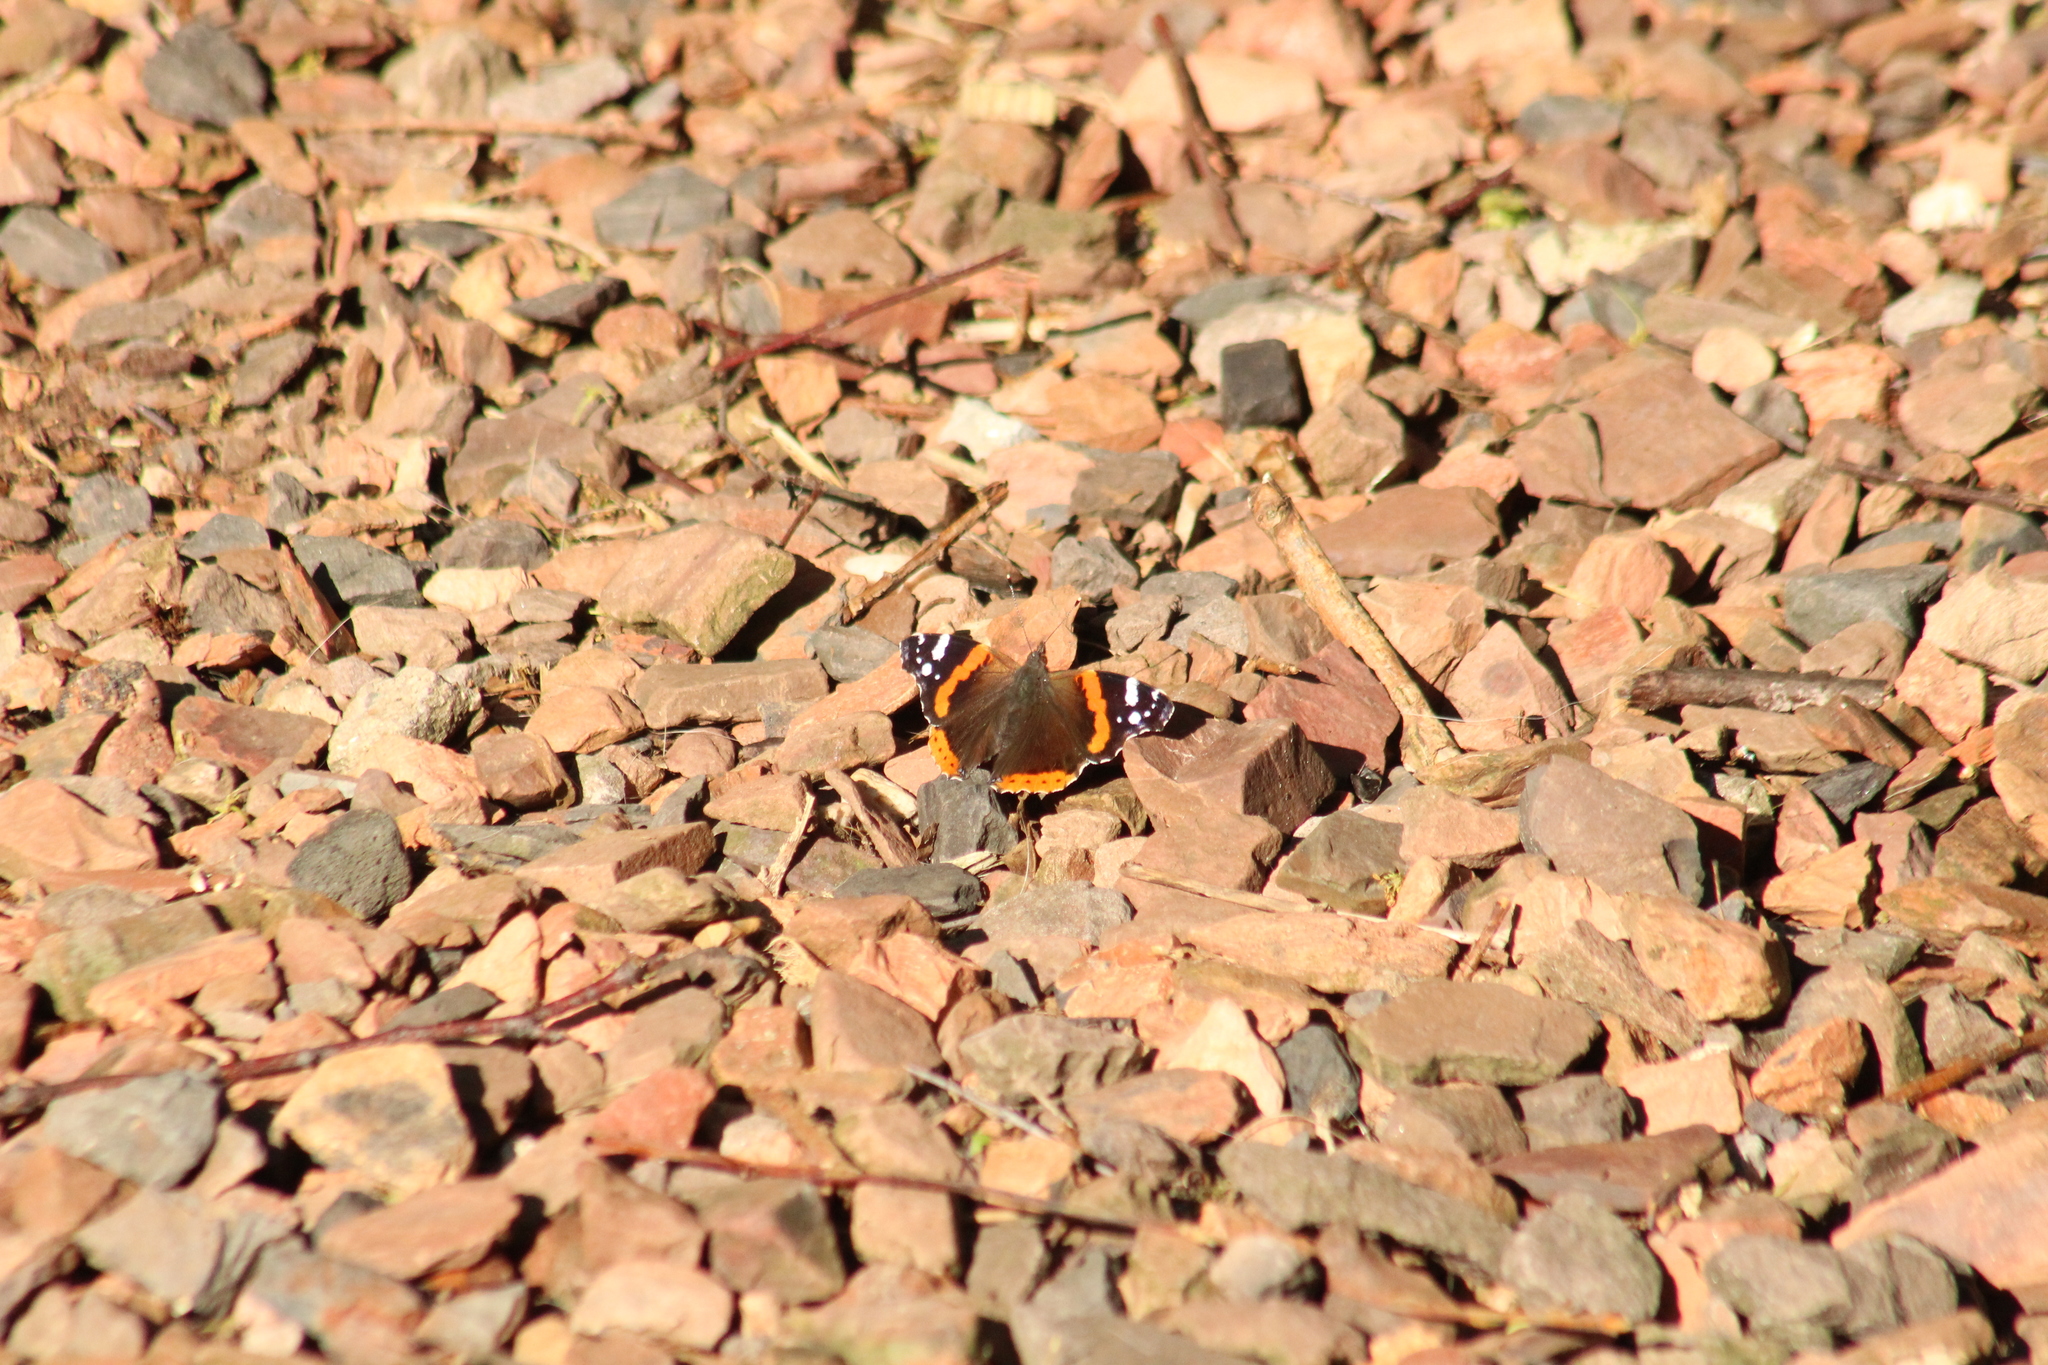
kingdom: Animalia
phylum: Arthropoda
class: Insecta
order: Lepidoptera
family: Nymphalidae
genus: Vanessa
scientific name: Vanessa atalanta
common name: Red admiral
